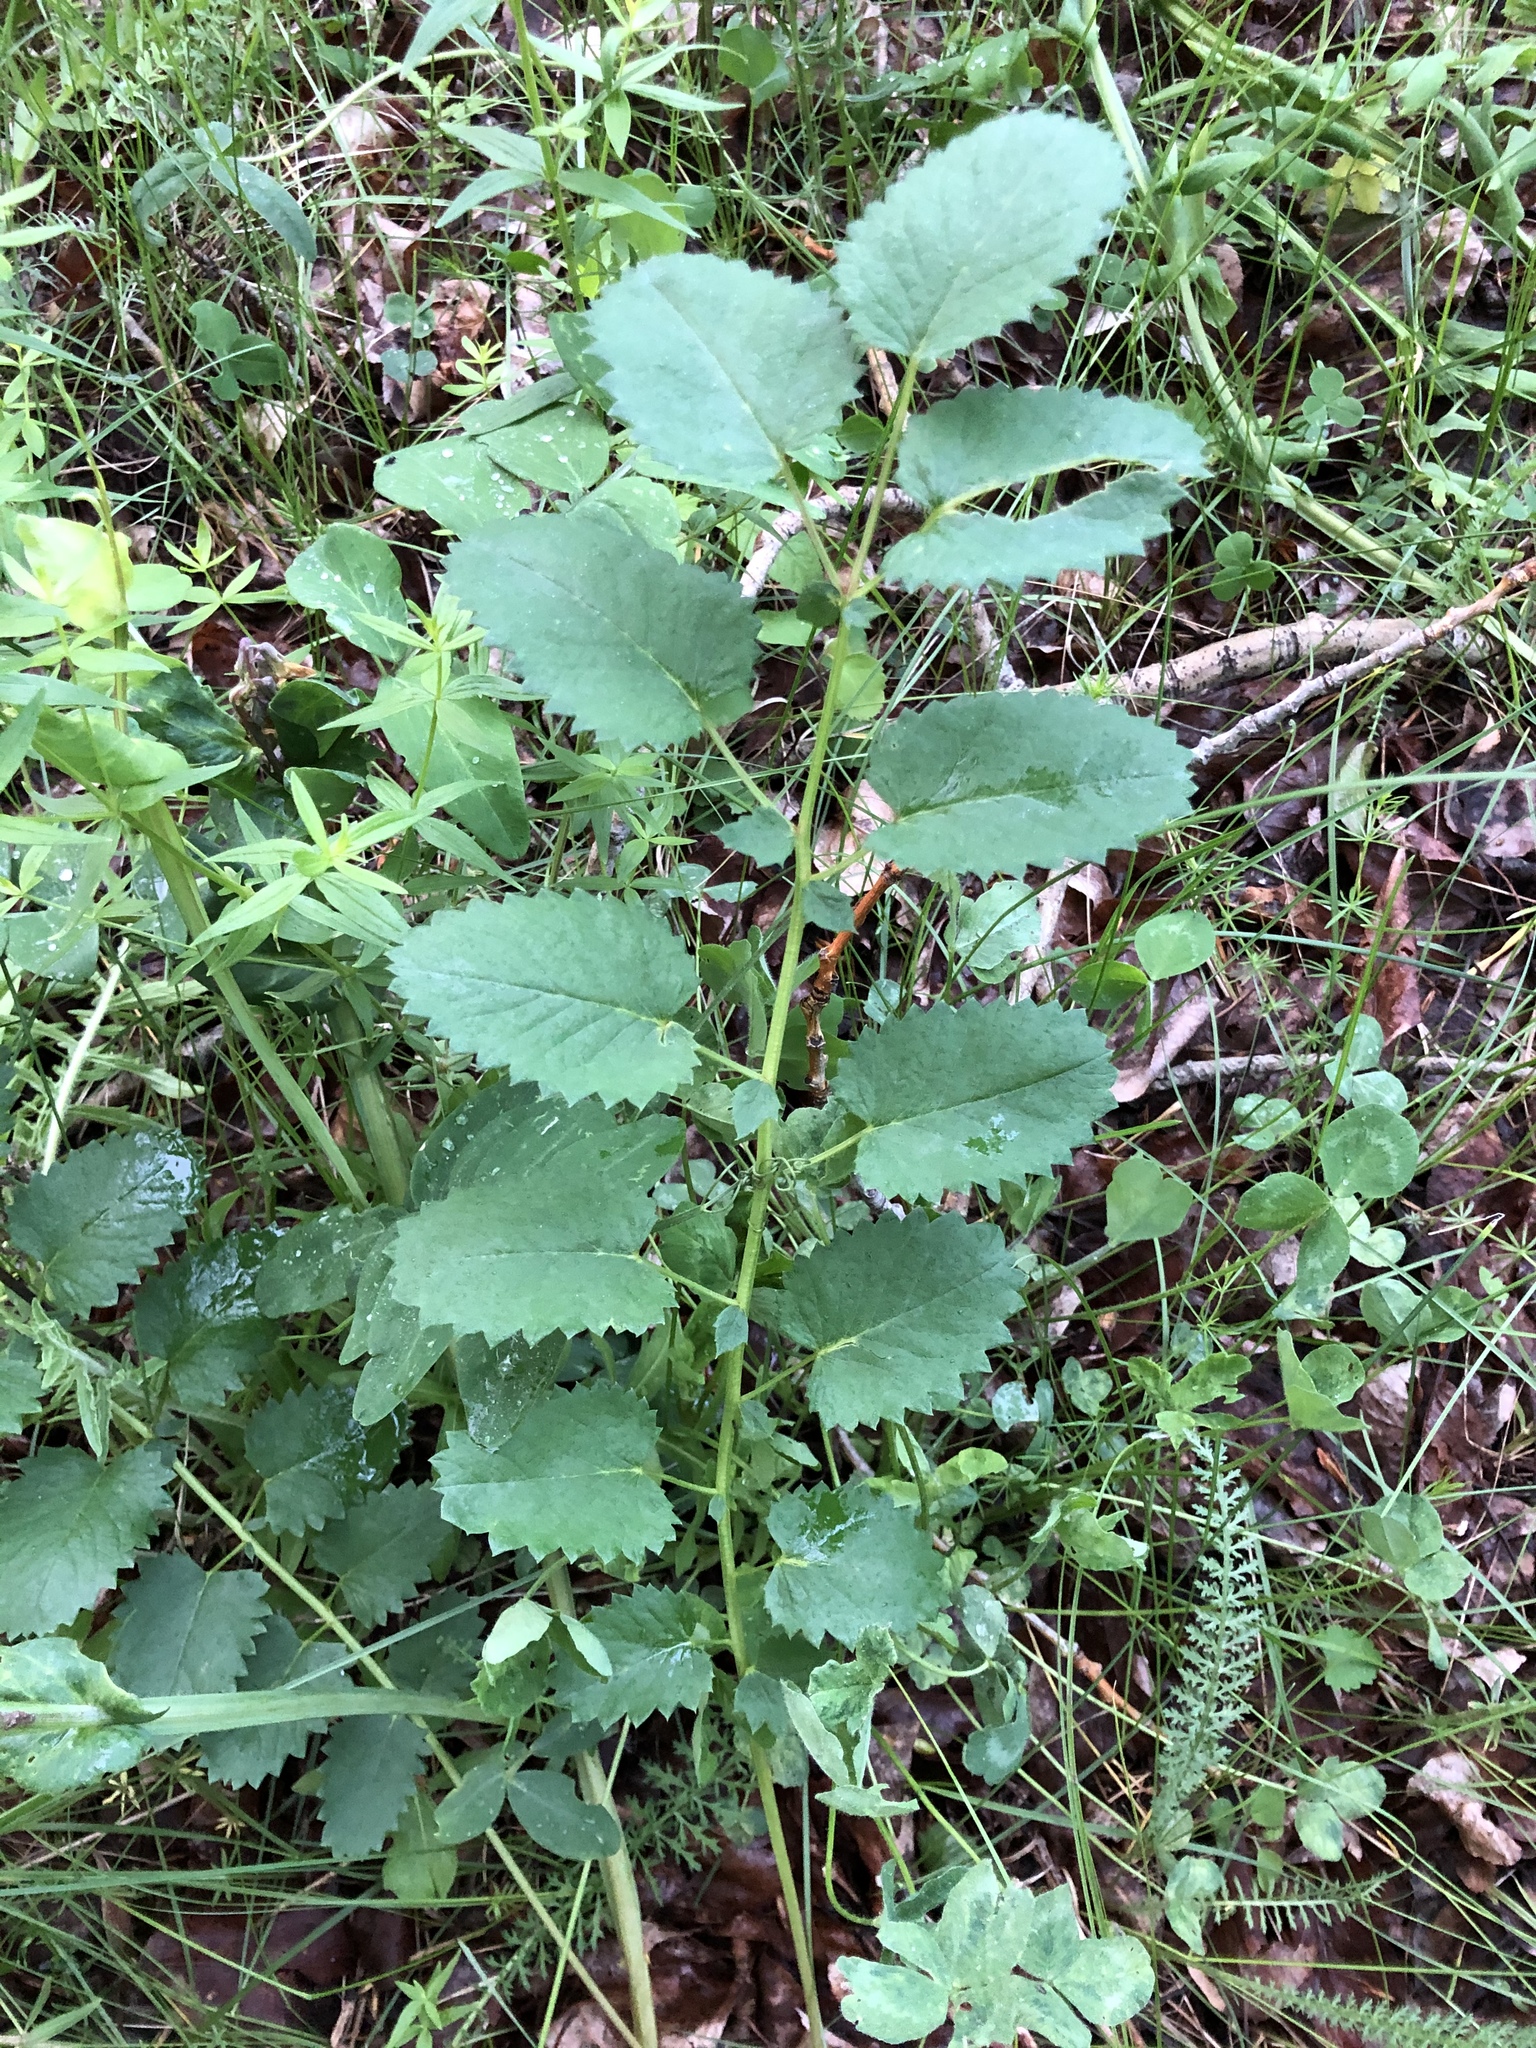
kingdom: Plantae
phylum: Tracheophyta
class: Magnoliopsida
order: Rosales
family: Rosaceae
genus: Sanguisorba
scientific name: Sanguisorba officinalis
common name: Great burnet
